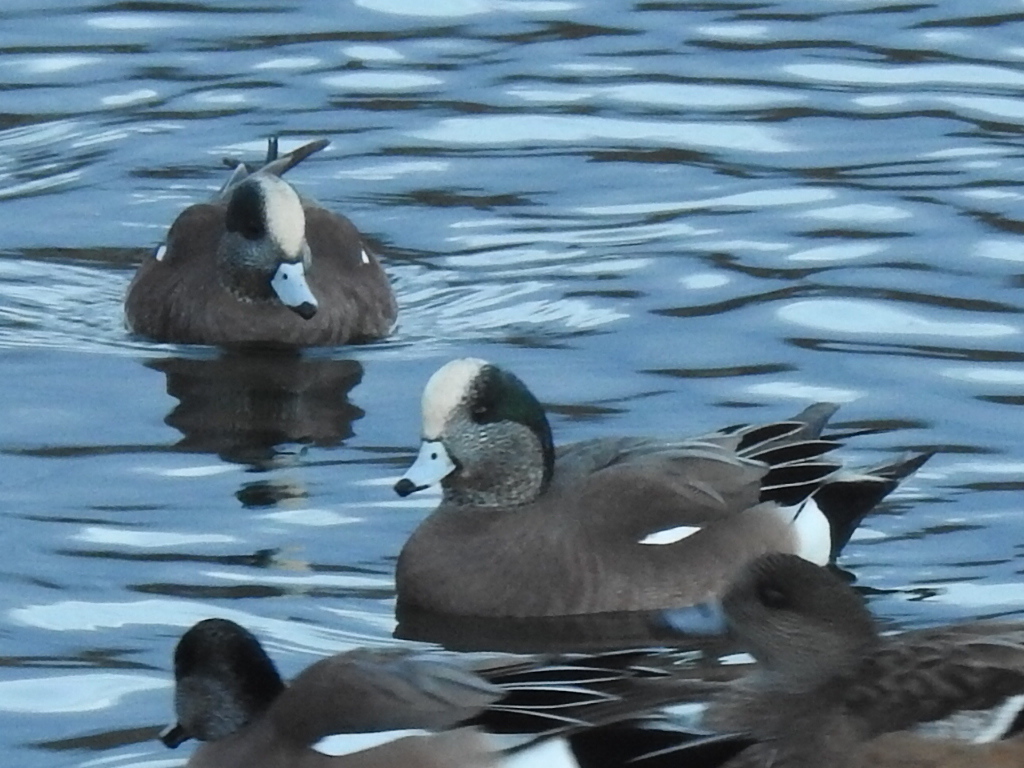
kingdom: Animalia
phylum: Chordata
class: Aves
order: Anseriformes
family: Anatidae
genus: Mareca
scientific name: Mareca americana
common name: American wigeon
